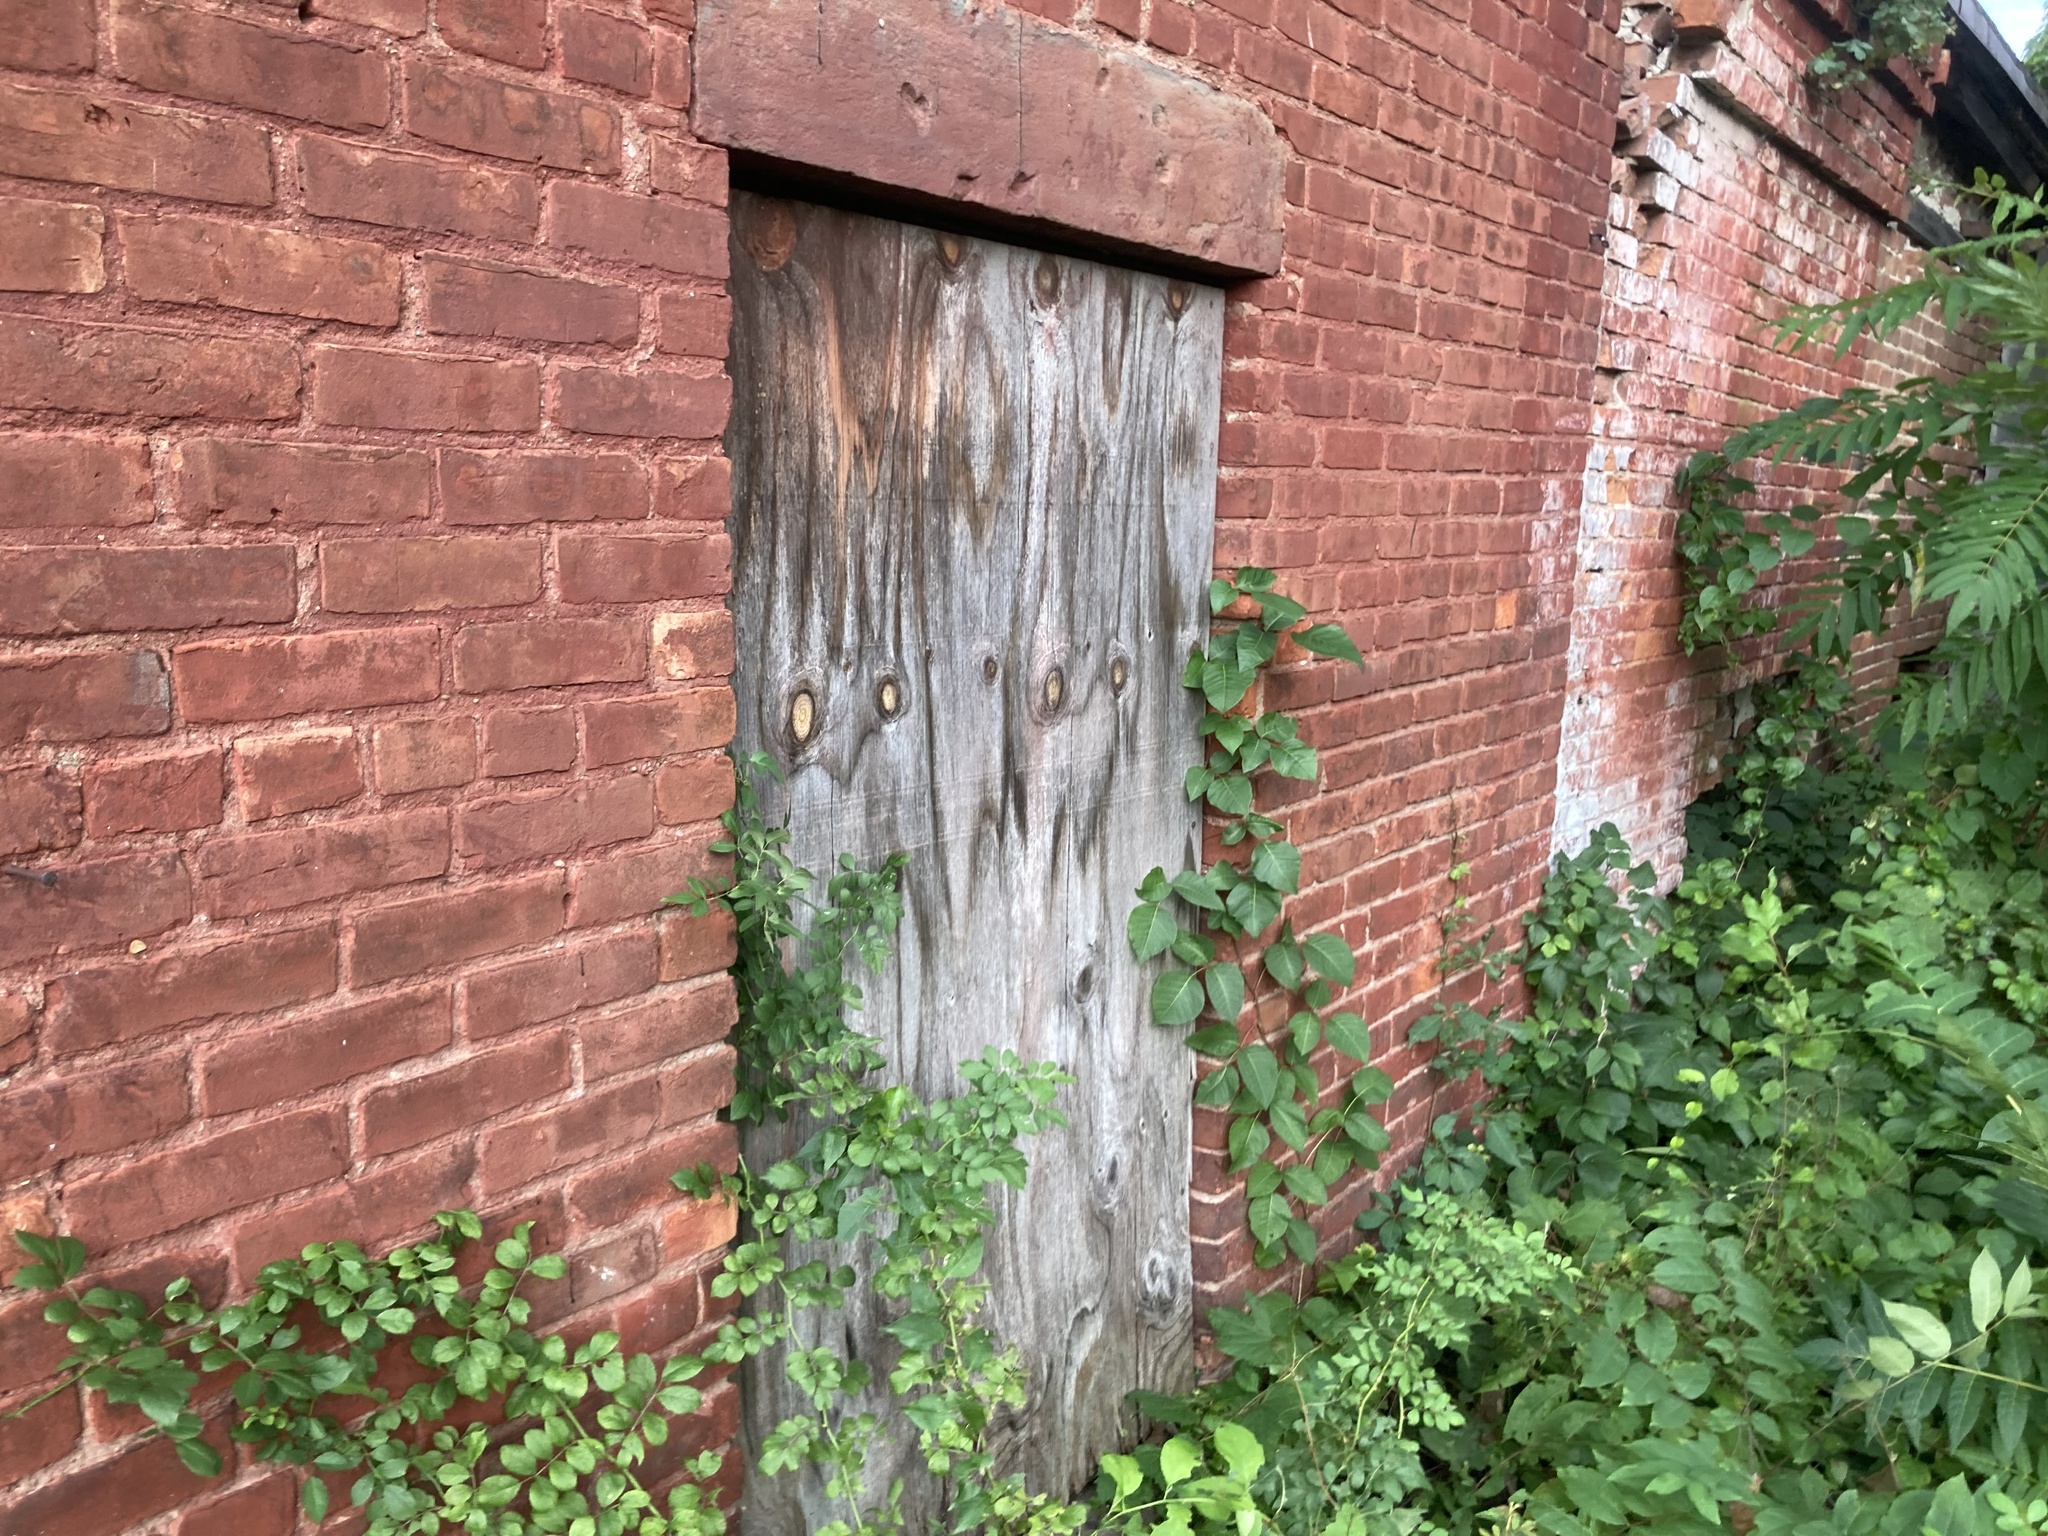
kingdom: Plantae
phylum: Tracheophyta
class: Magnoliopsida
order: Sapindales
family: Anacardiaceae
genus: Toxicodendron
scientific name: Toxicodendron radicans
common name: Poison ivy
